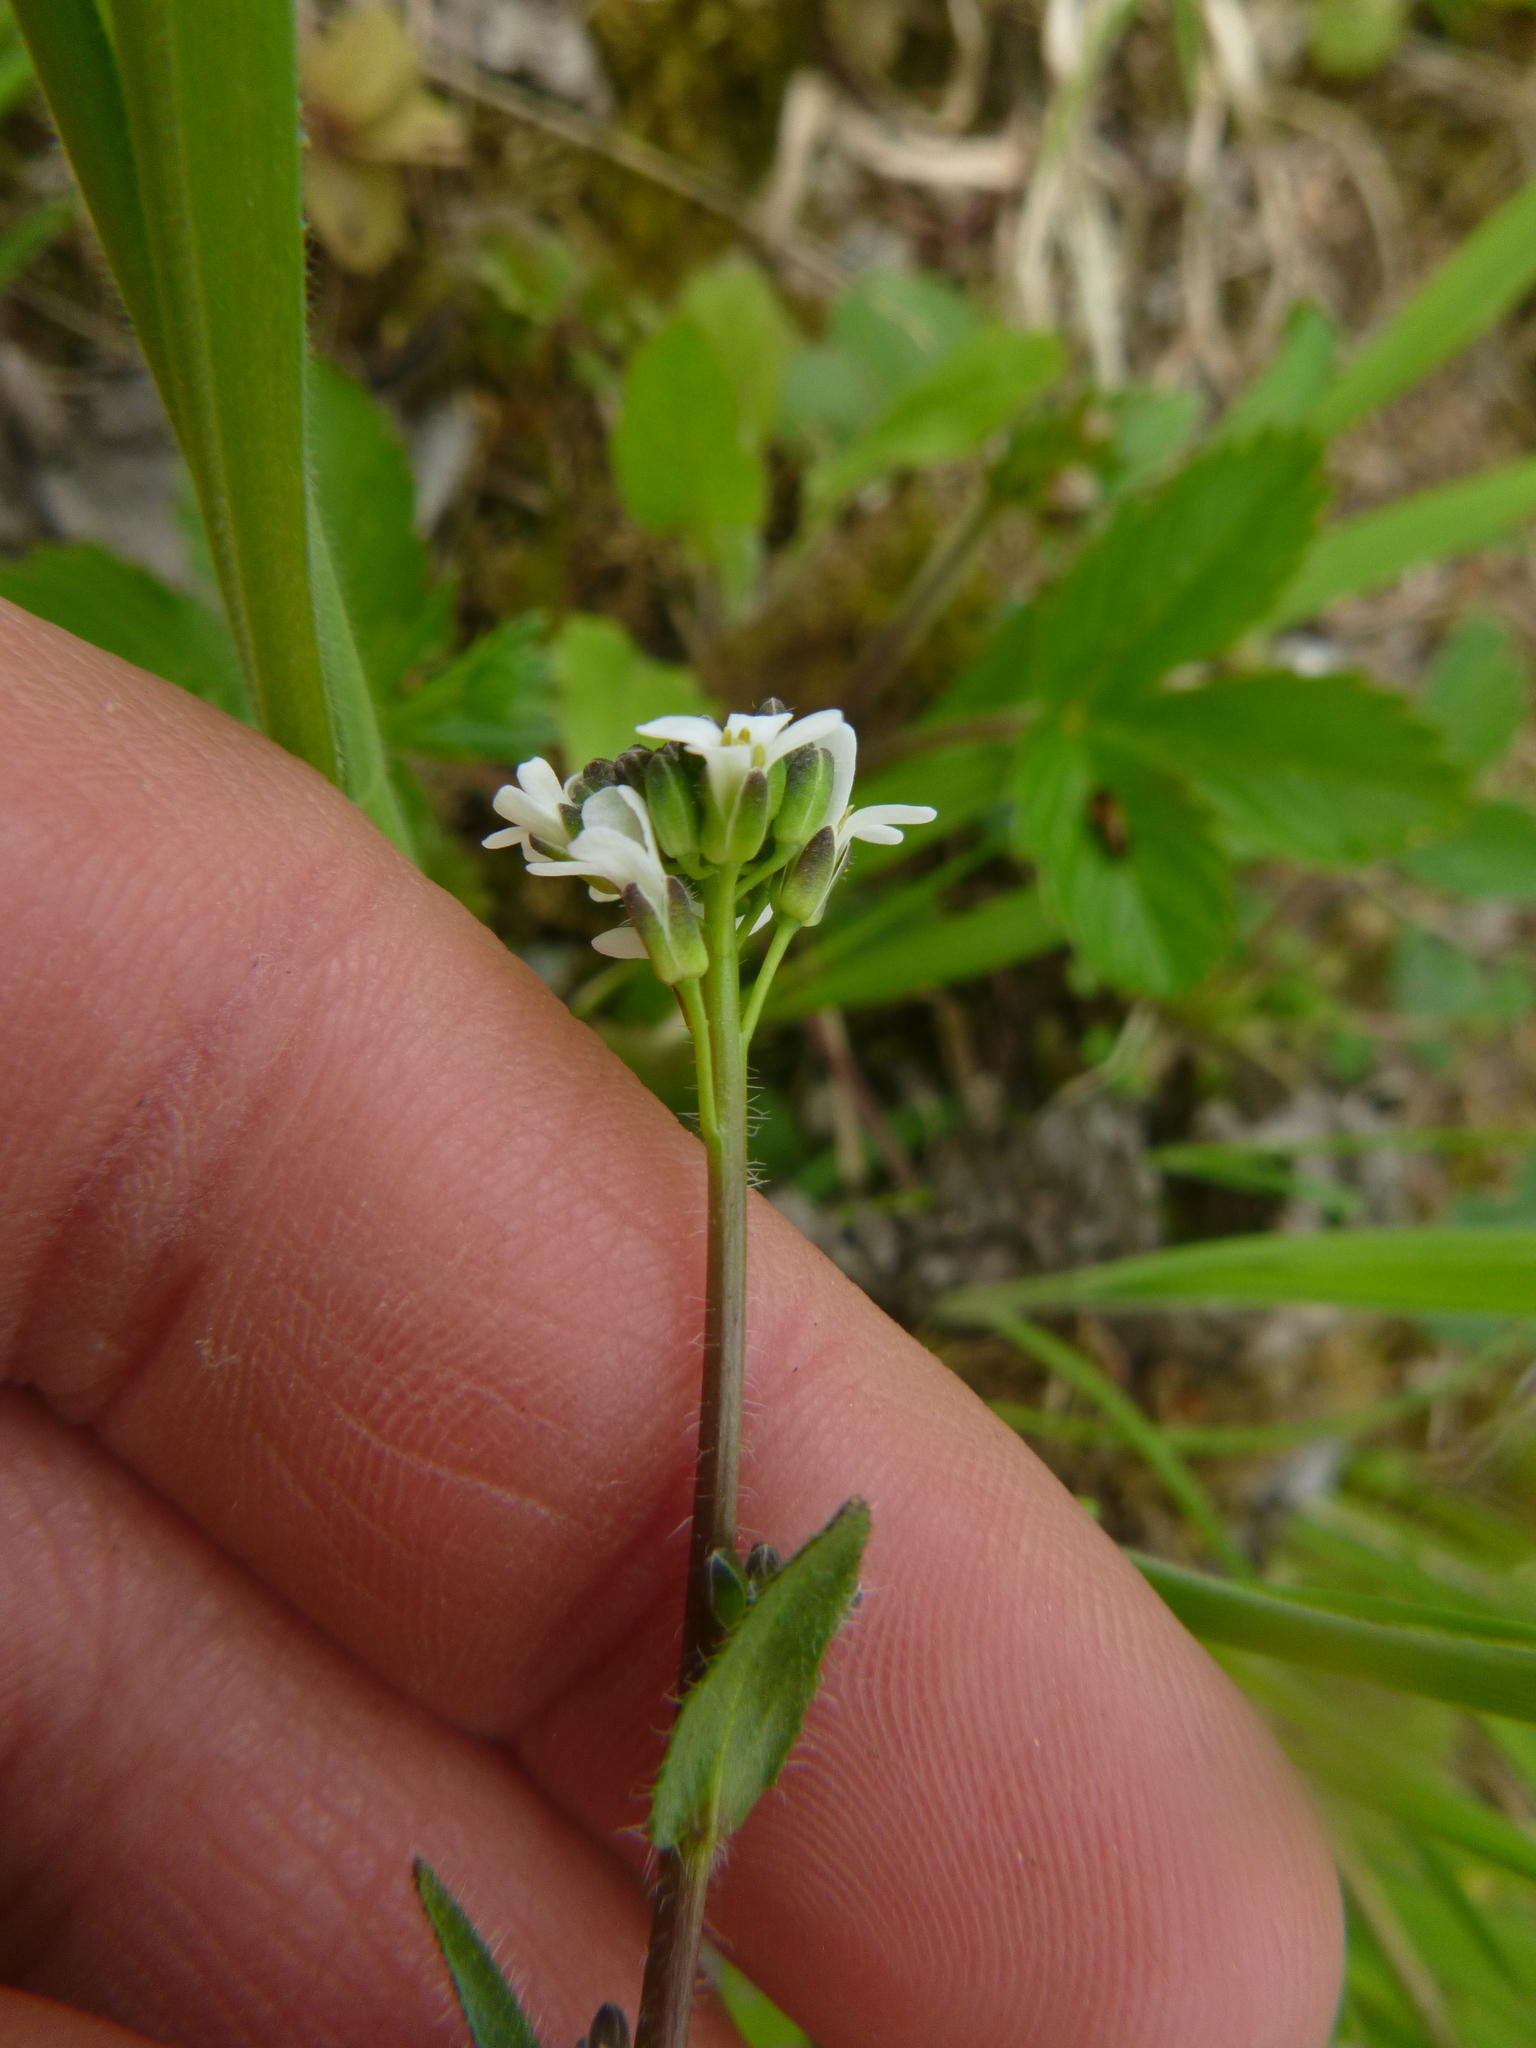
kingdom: Plantae
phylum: Tracheophyta
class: Magnoliopsida
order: Brassicales
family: Brassicaceae
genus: Arabis
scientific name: Arabis hirsuta
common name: Hairy rock-cress
